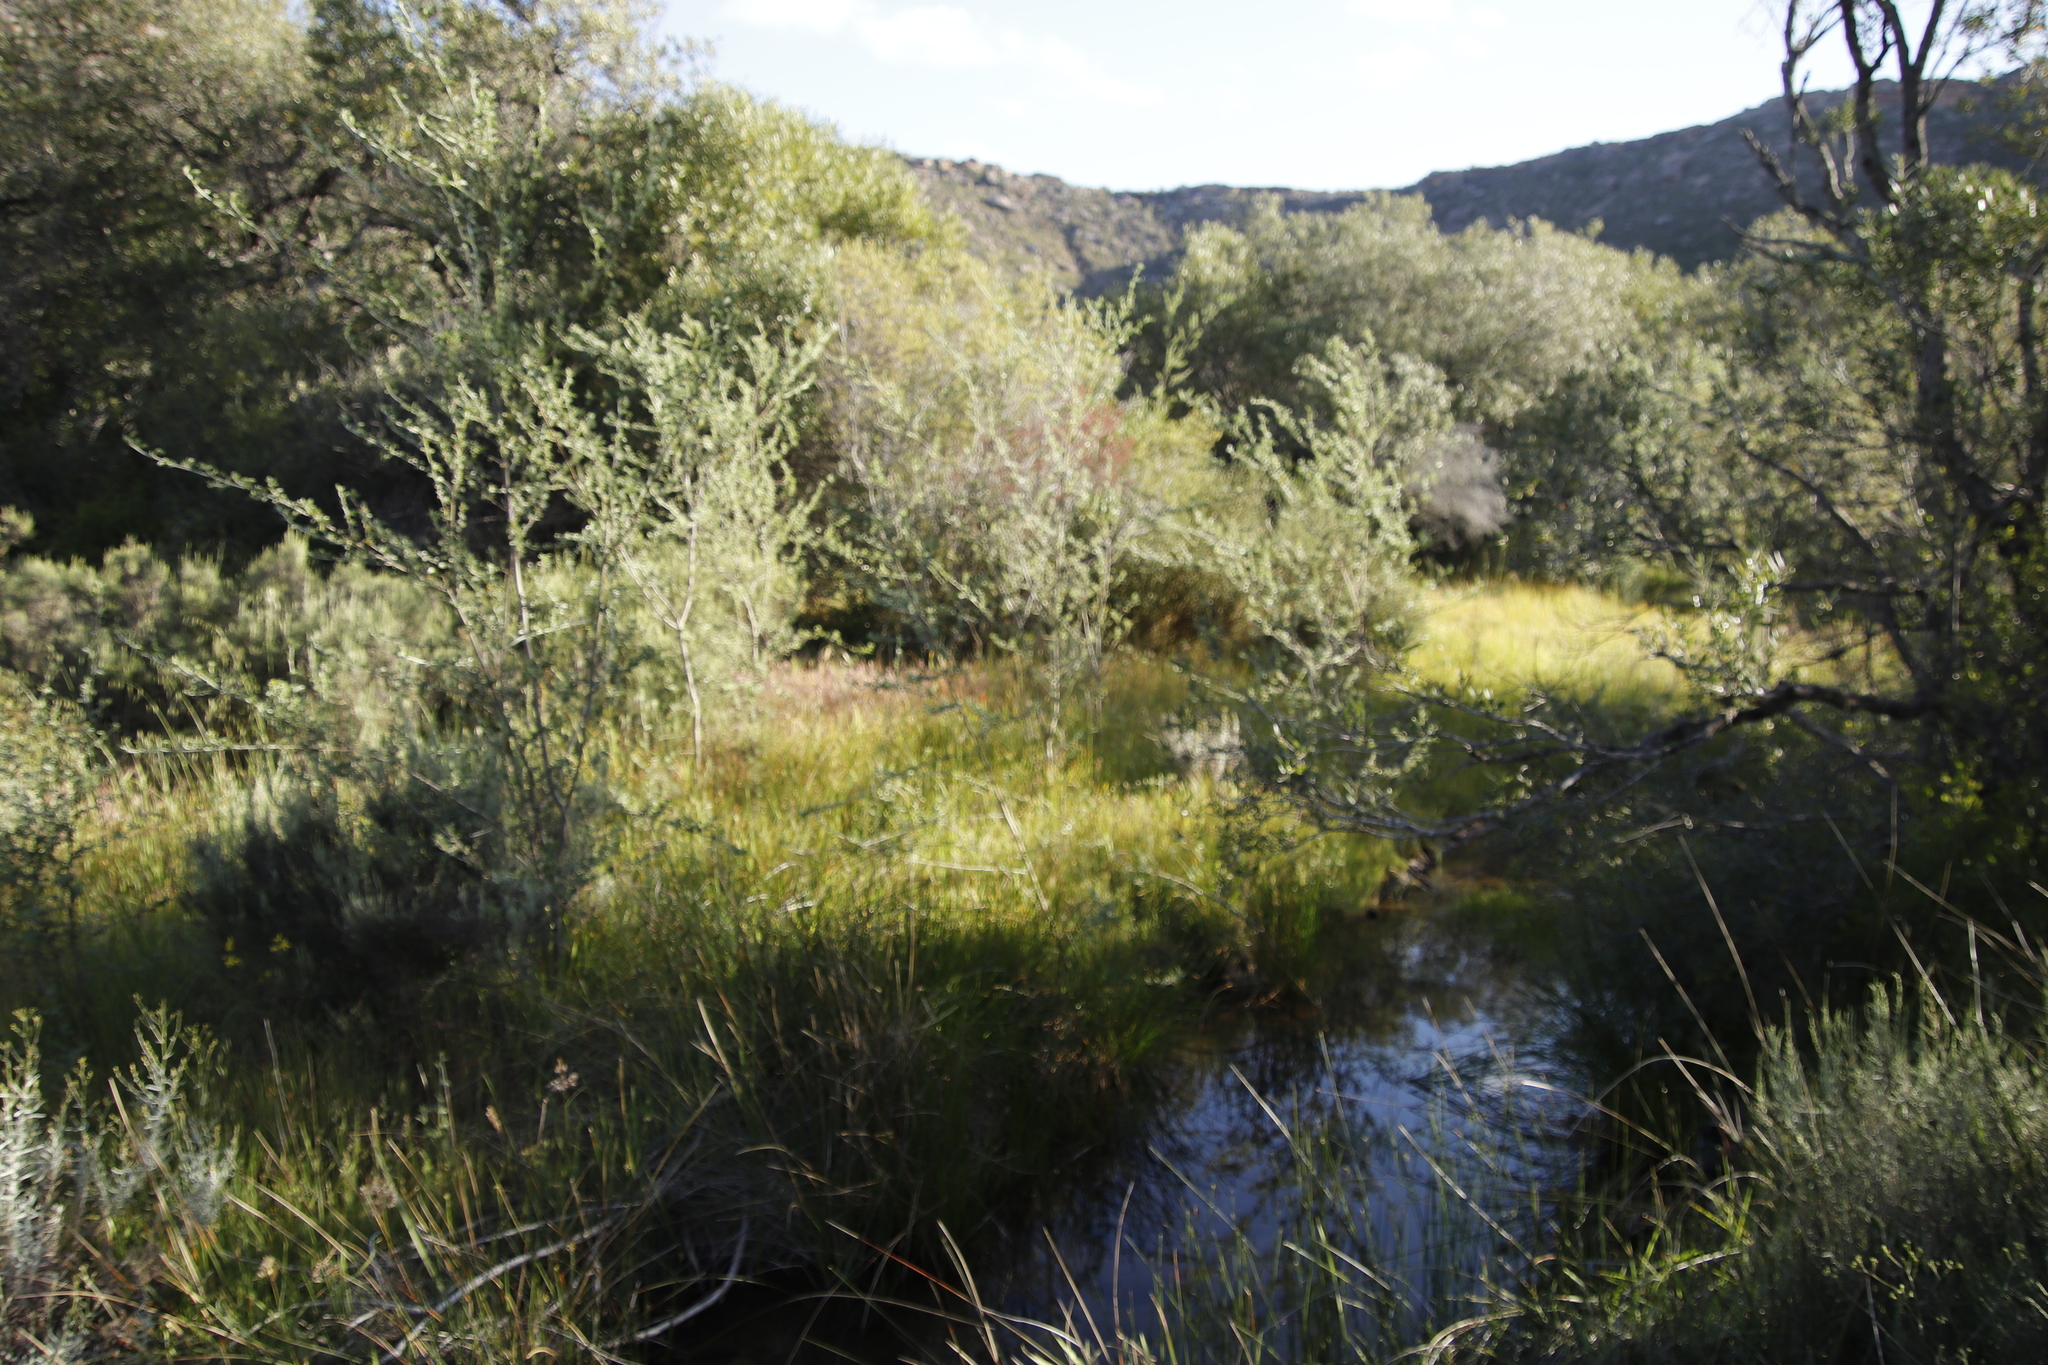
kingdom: Plantae
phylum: Tracheophyta
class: Liliopsida
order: Poales
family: Cyperaceae
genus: Eleocharis
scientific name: Eleocharis limosa
